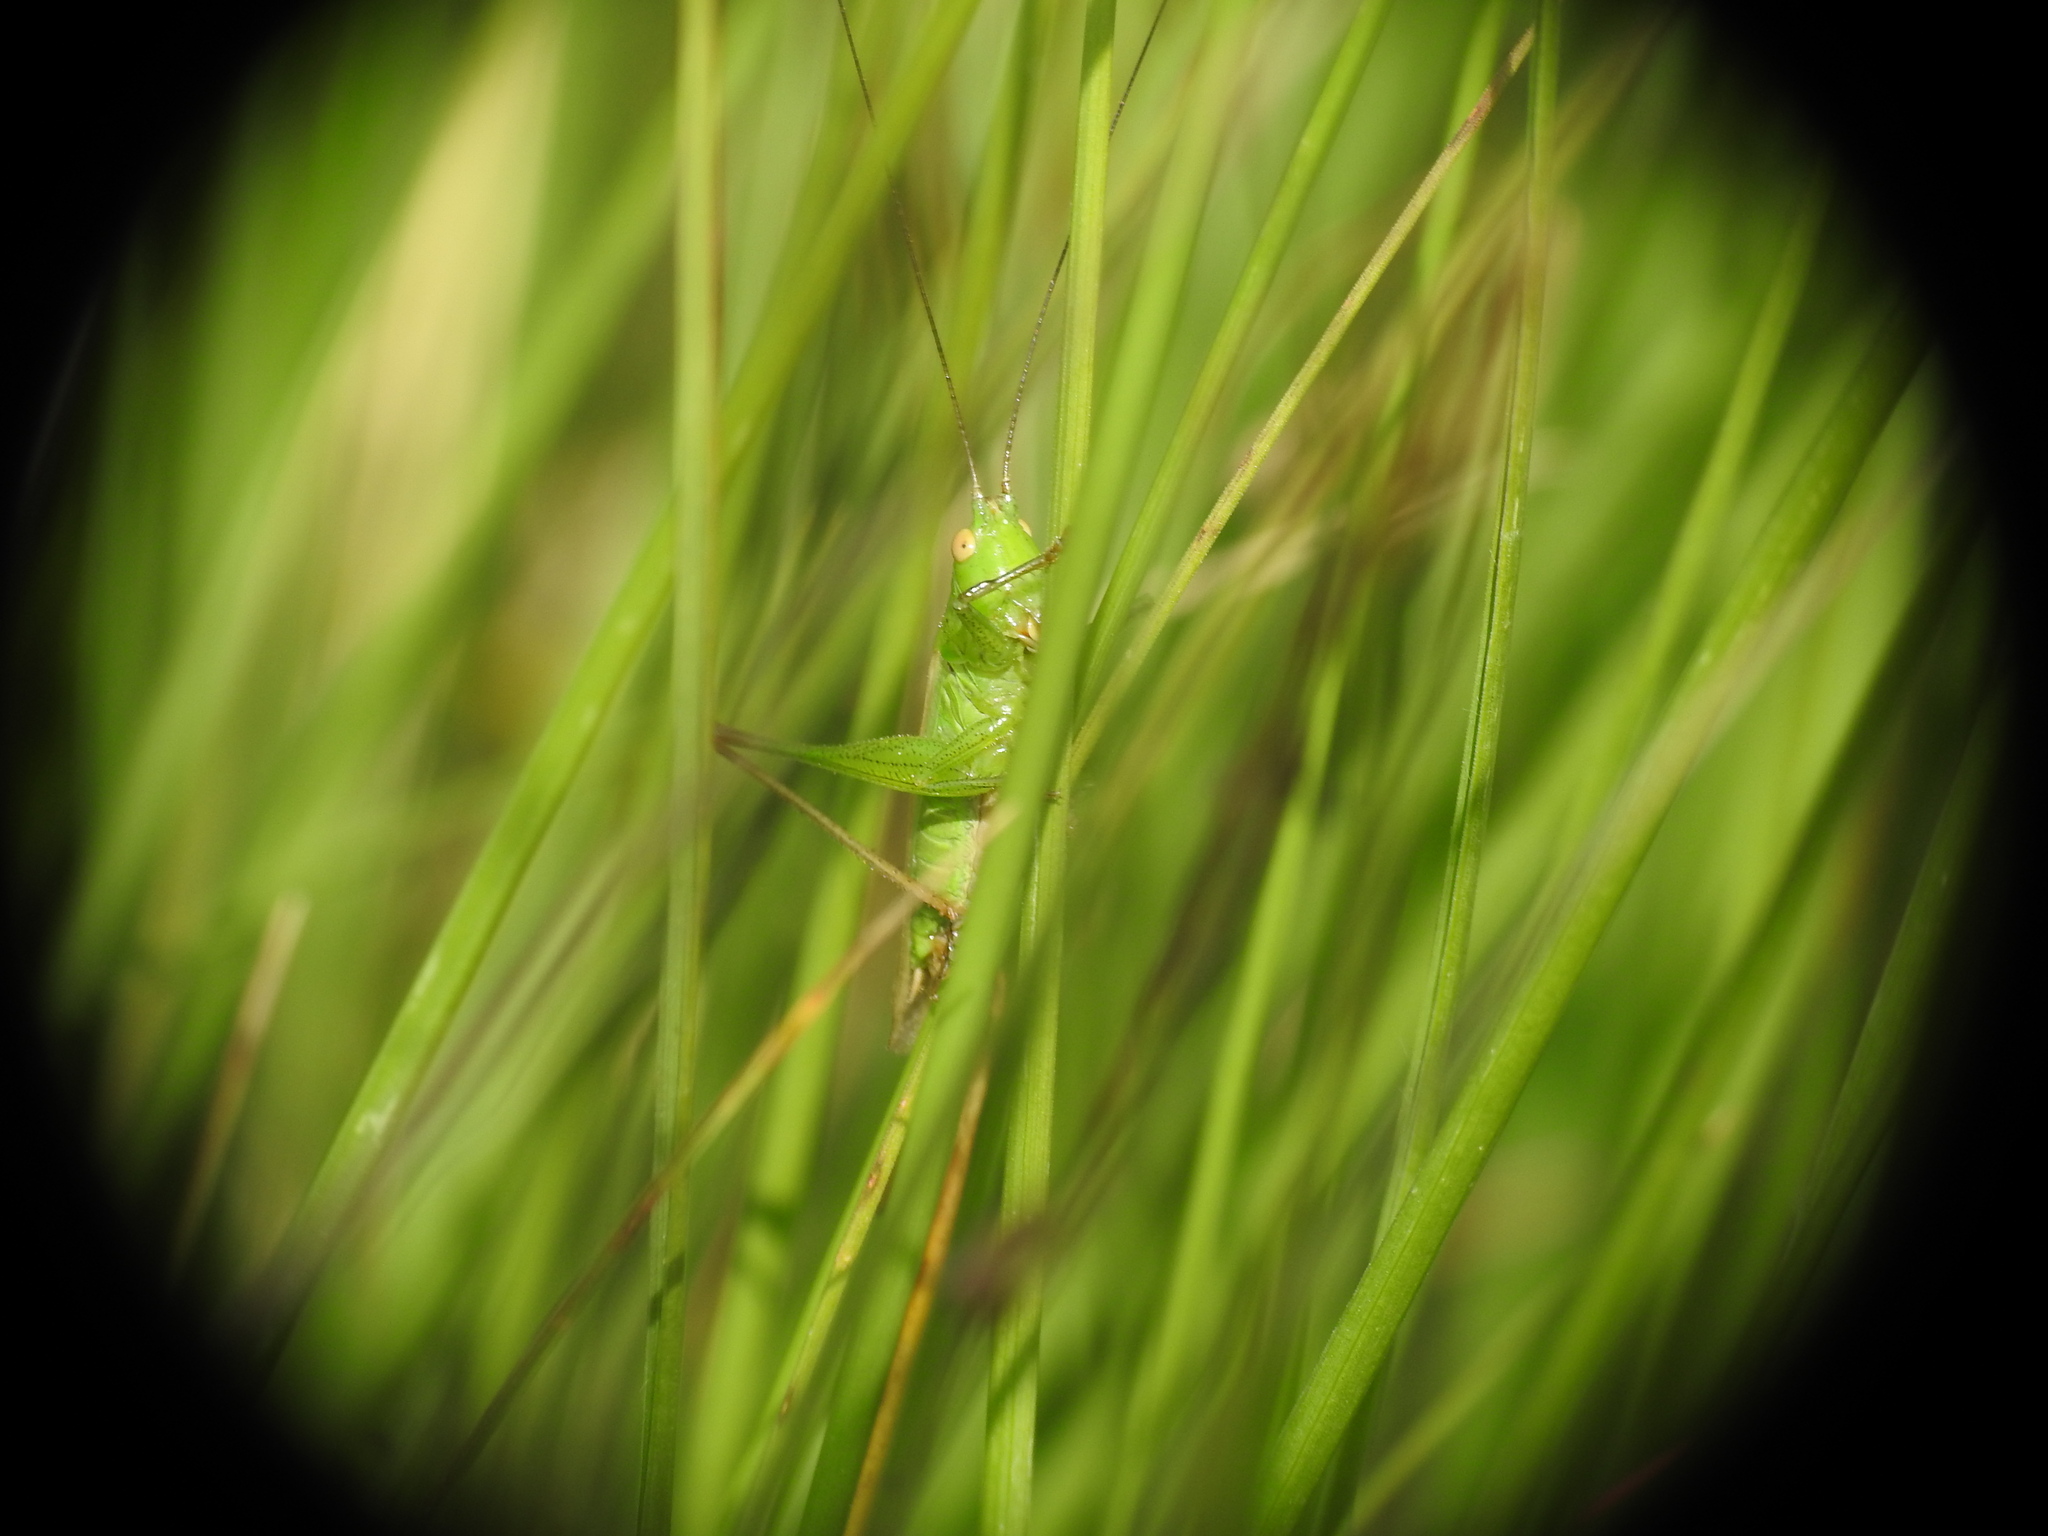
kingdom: Animalia
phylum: Arthropoda
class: Insecta
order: Orthoptera
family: Tettigoniidae
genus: Conocephalus
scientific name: Conocephalus fuscus
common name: Long-winged conehead
